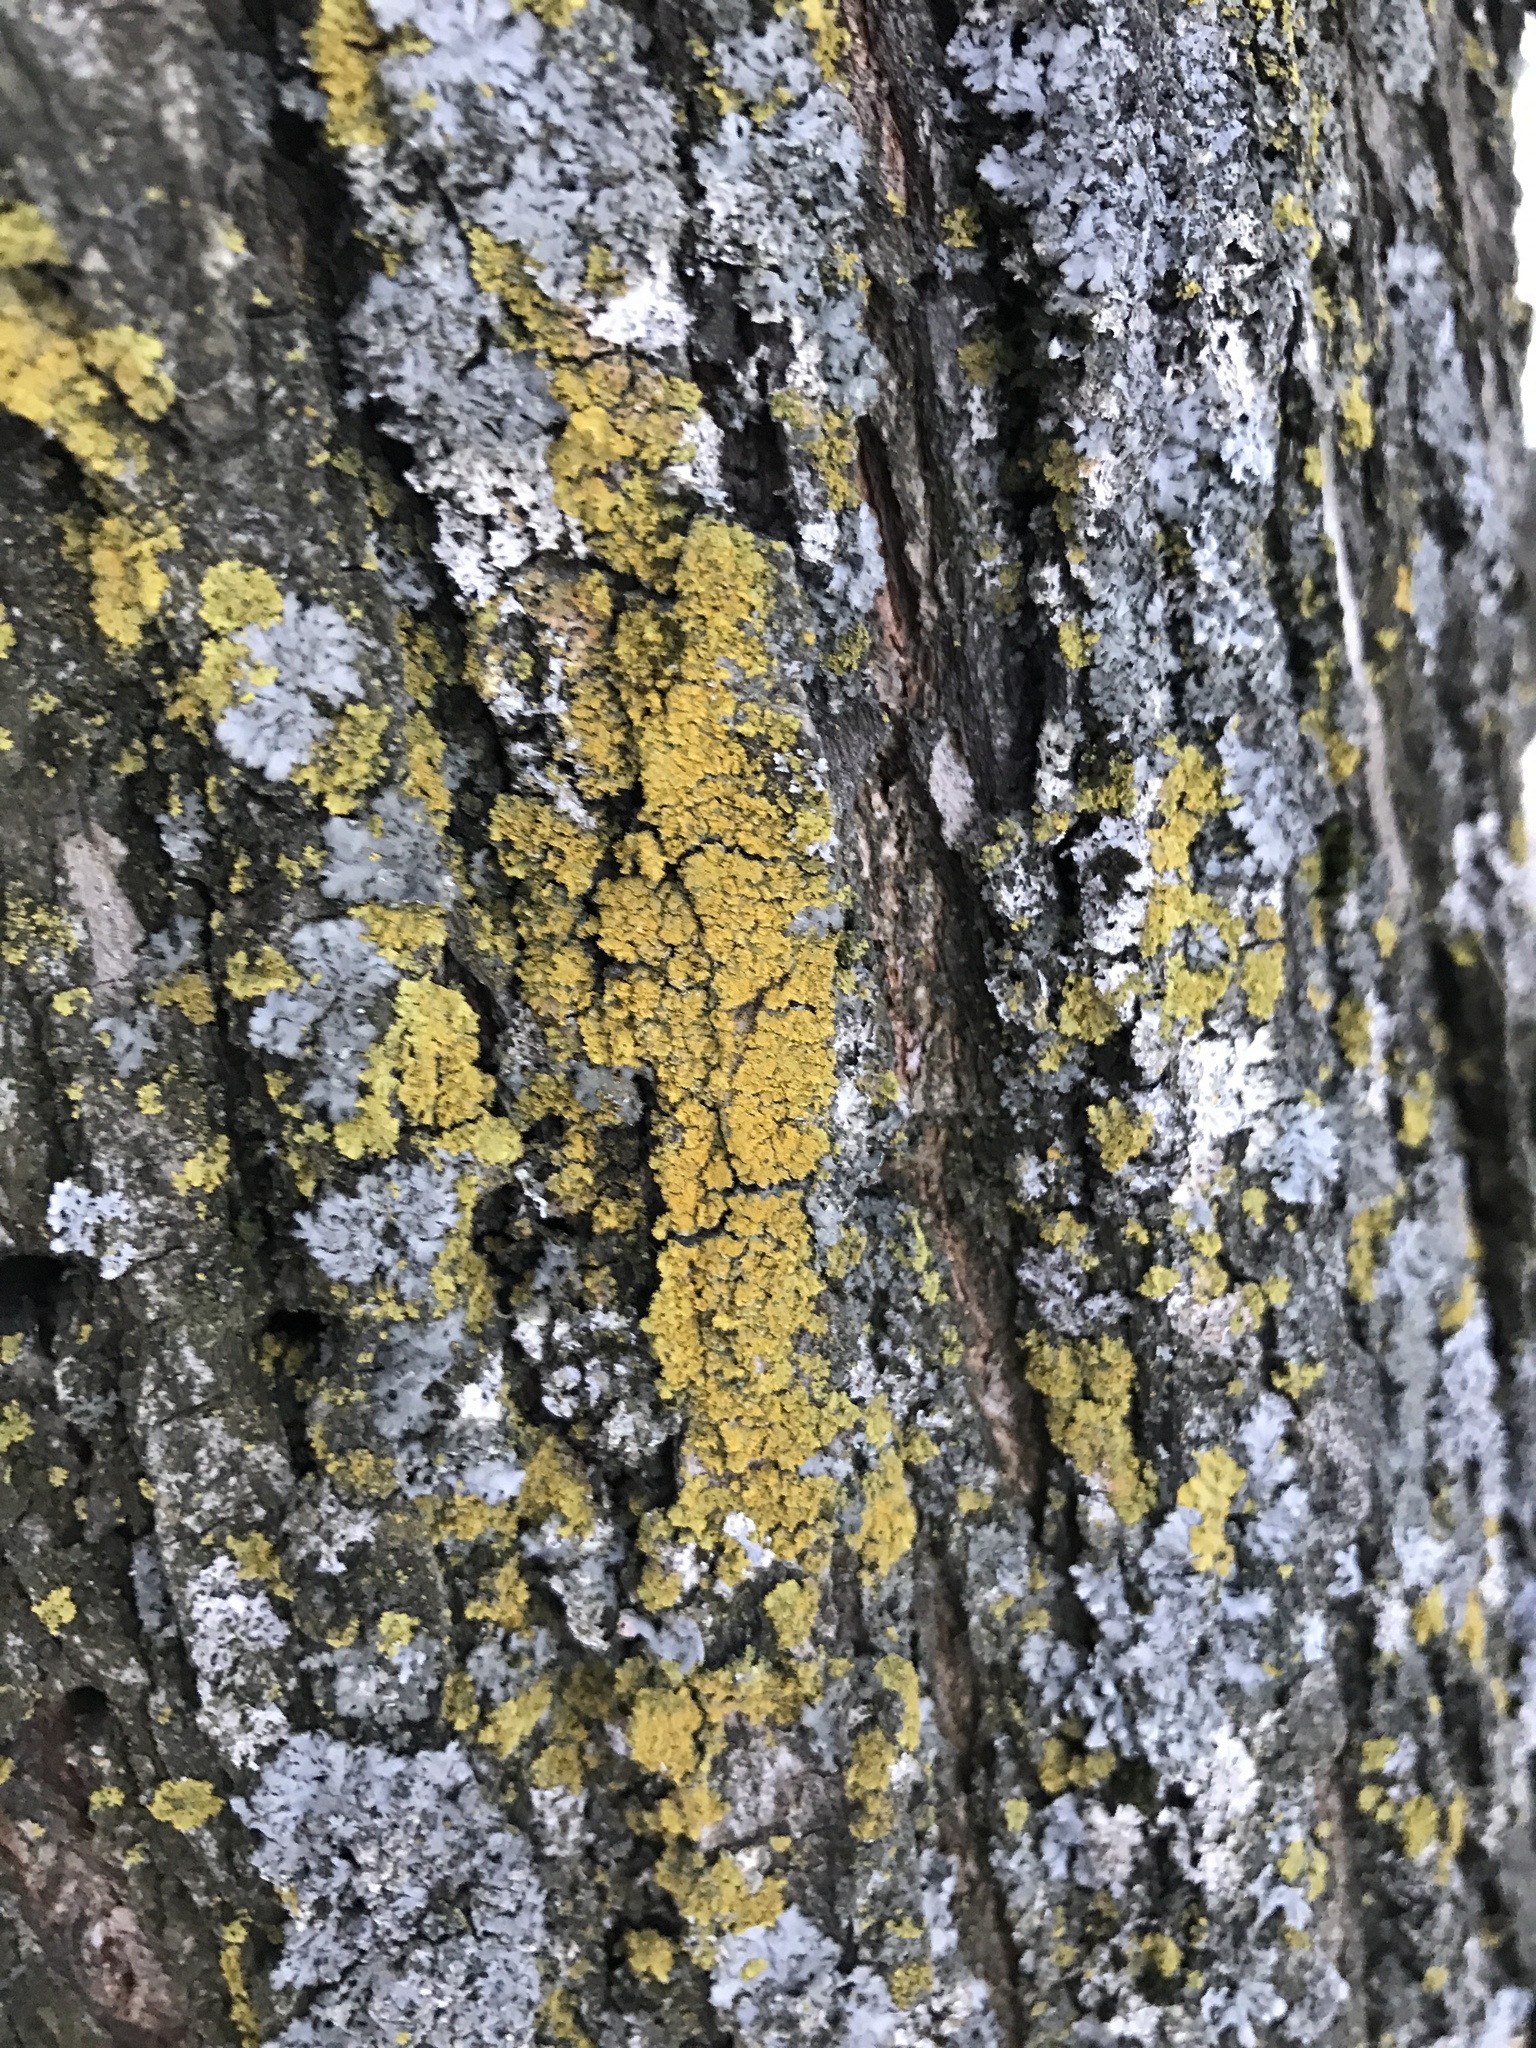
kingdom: Fungi
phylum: Ascomycota
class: Candelariomycetes
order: Candelariales
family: Candelariaceae
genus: Candelaria
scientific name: Candelaria concolor
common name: Candleflame lichen
